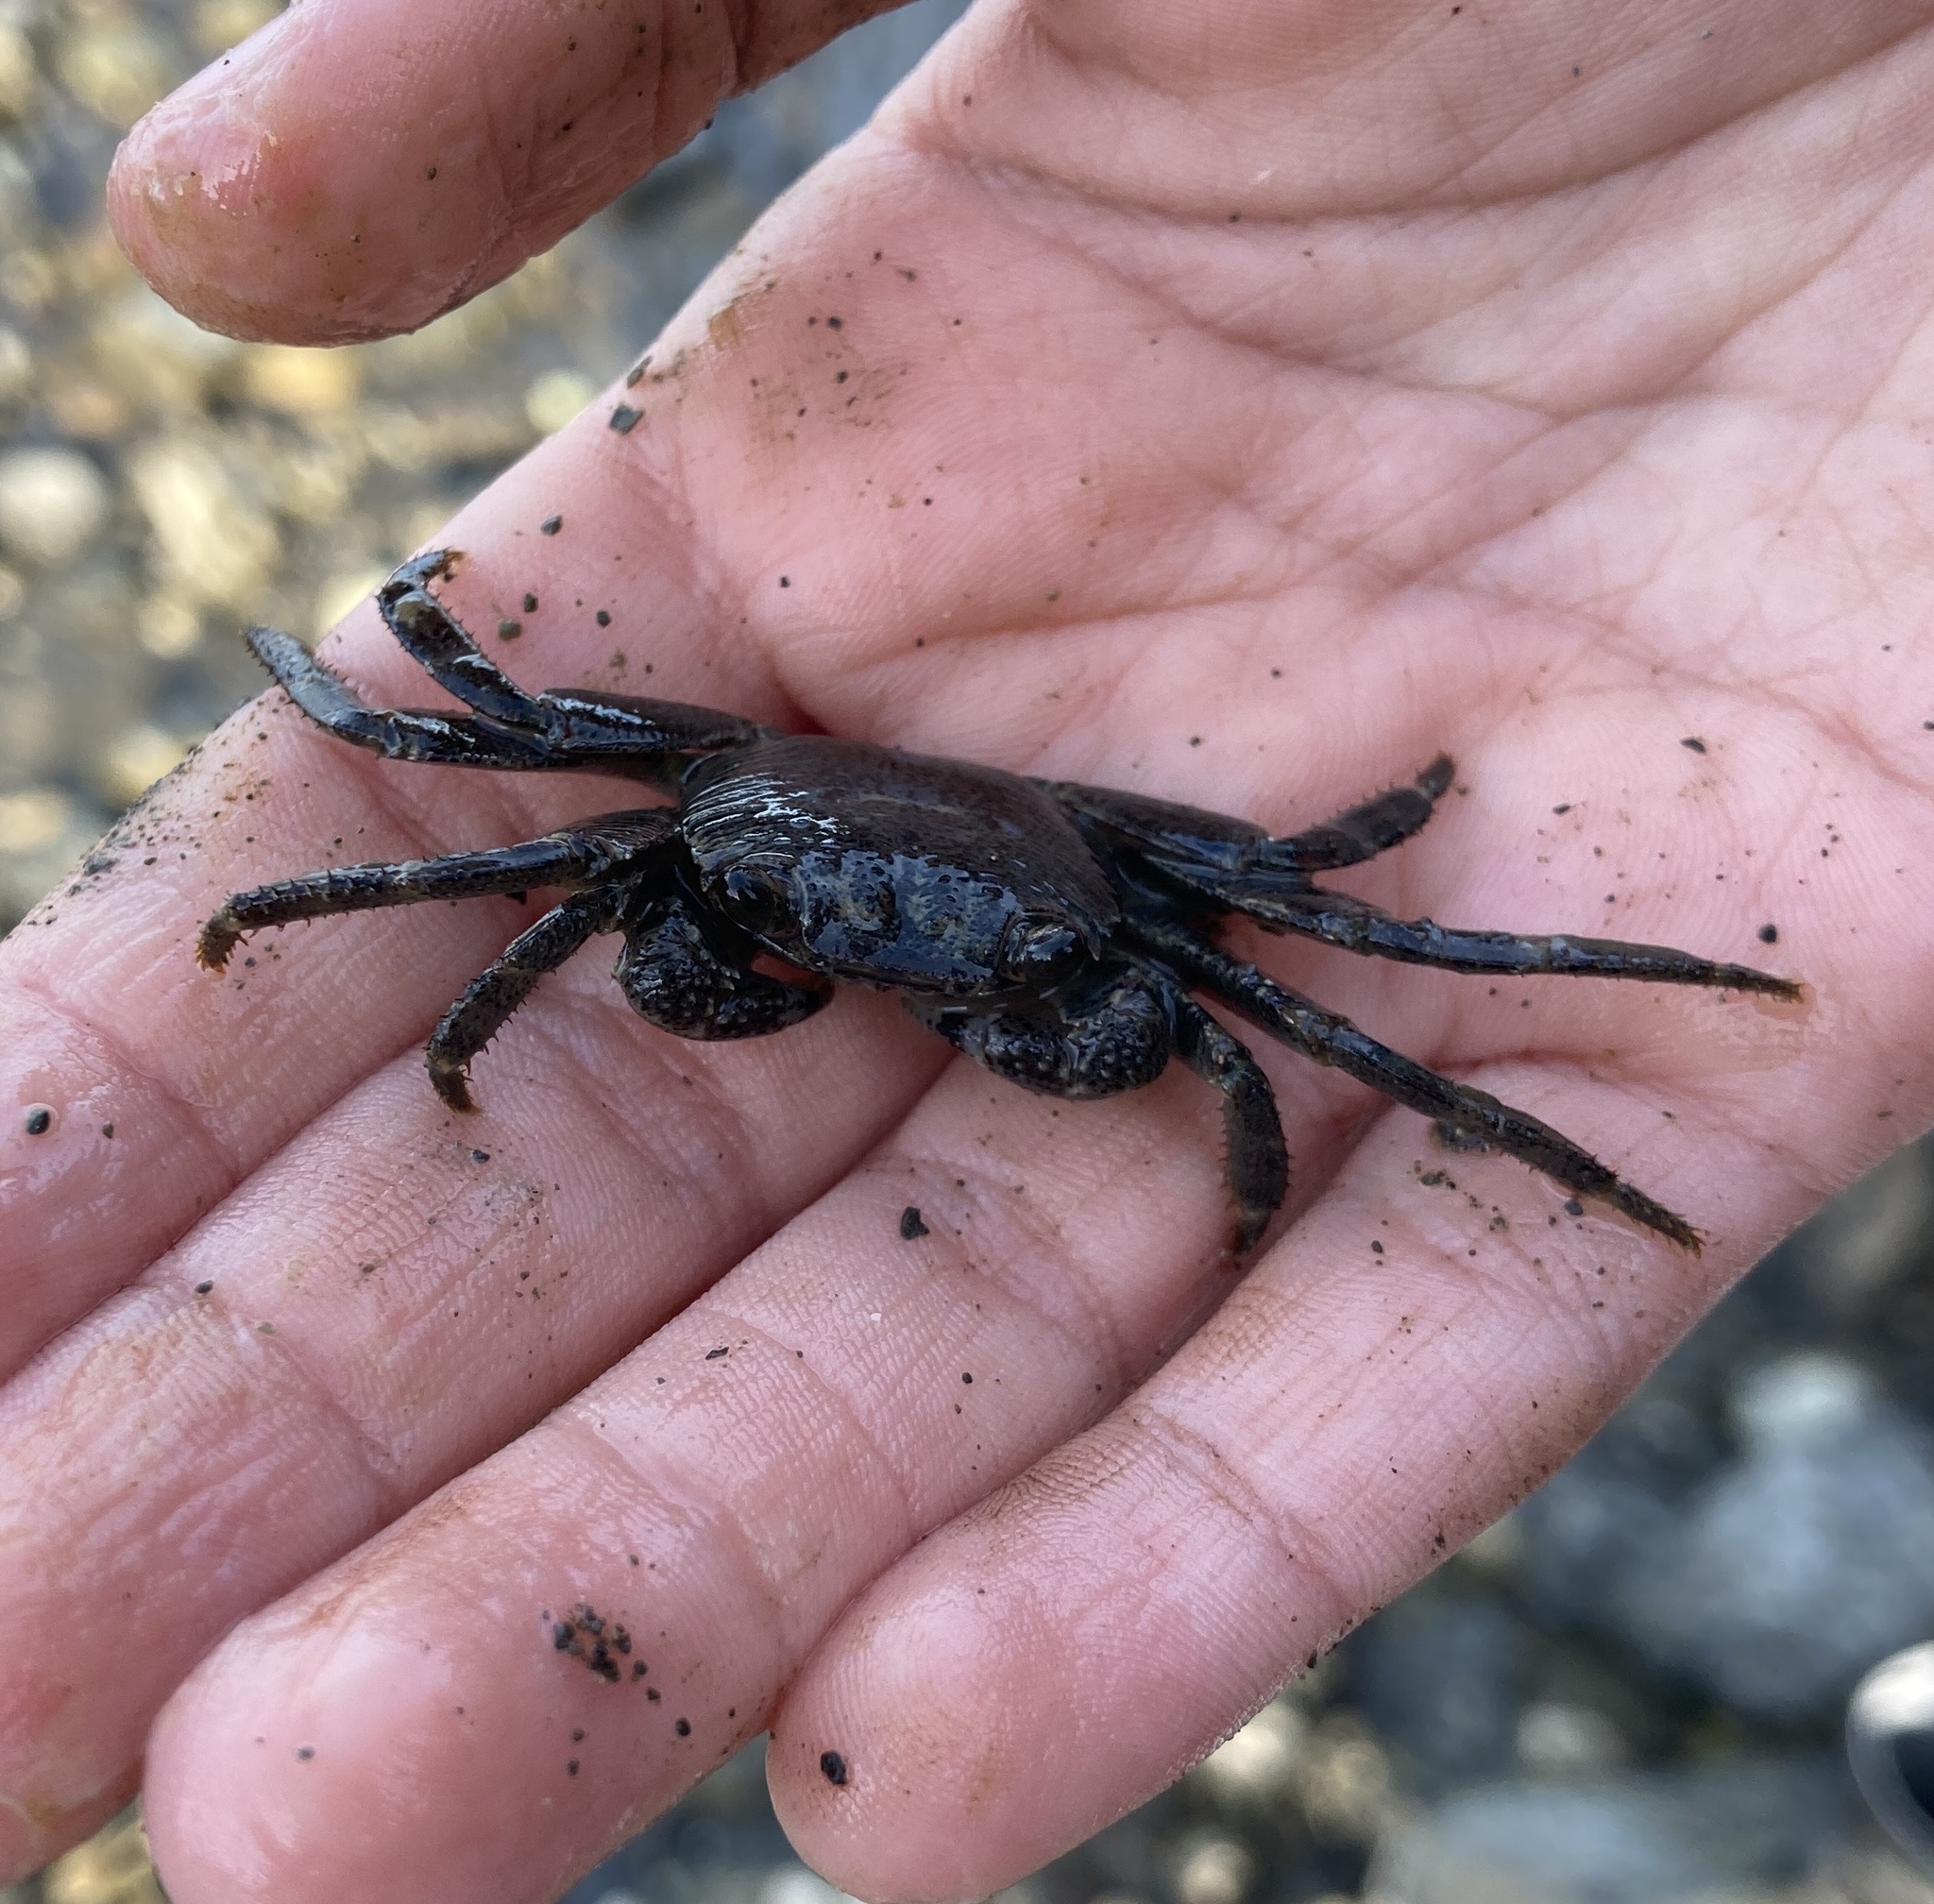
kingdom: Animalia
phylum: Arthropoda
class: Malacostraca
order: Decapoda
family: Grapsidae
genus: Leptograpsus
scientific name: Leptograpsus variegatus
